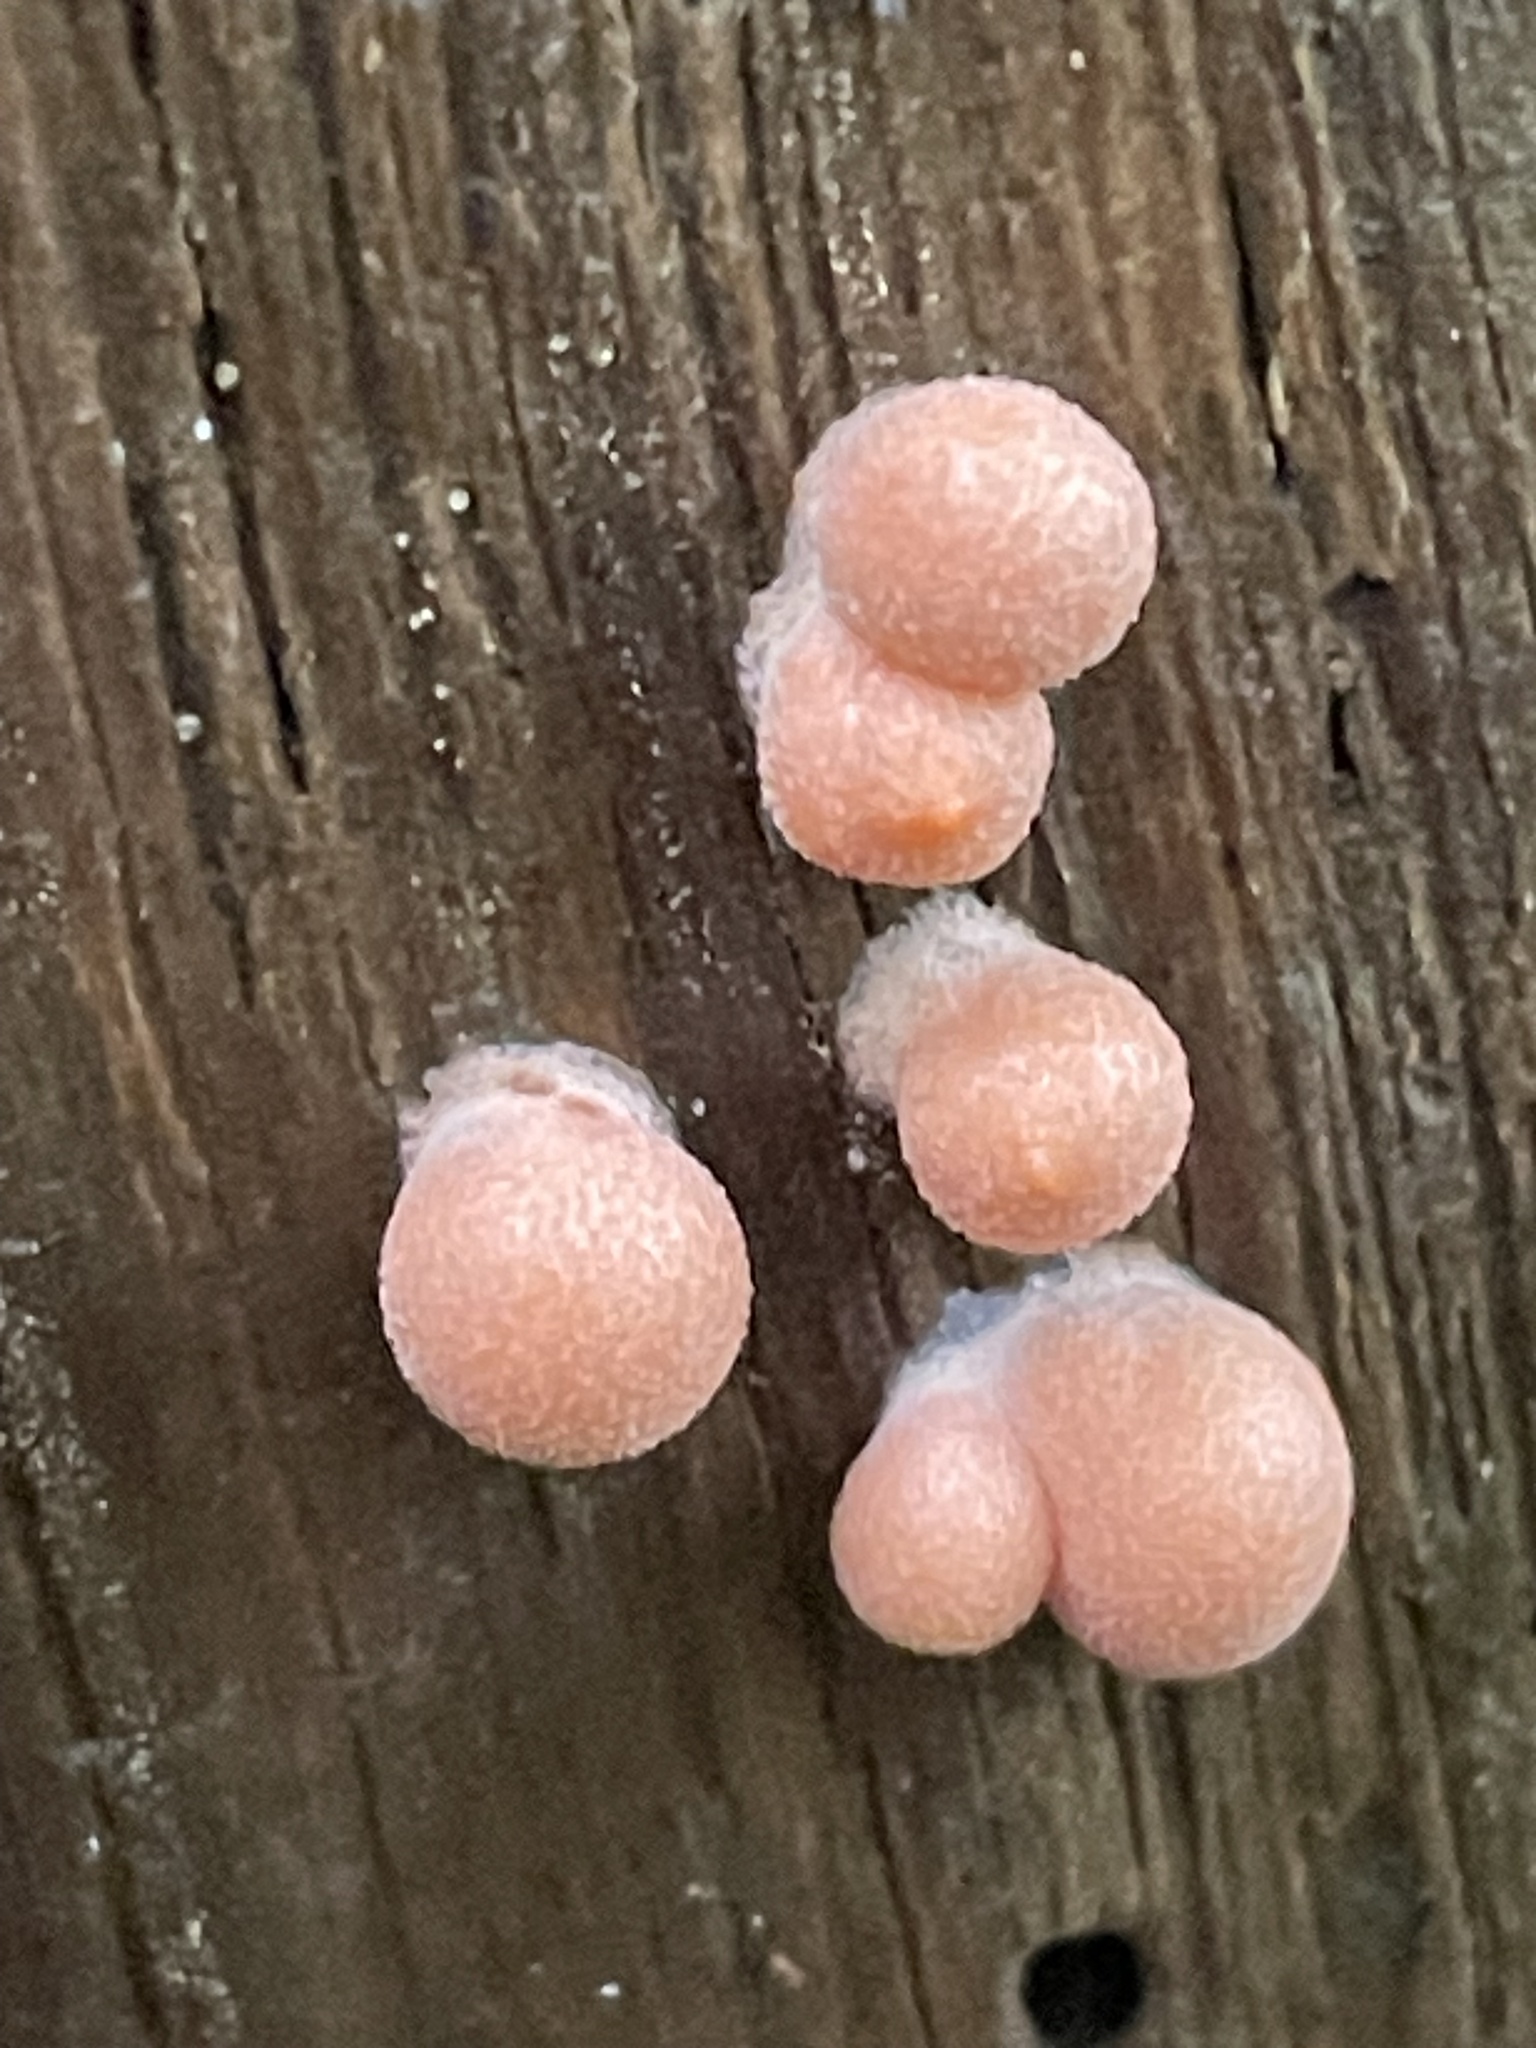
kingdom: Protozoa
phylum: Mycetozoa
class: Myxomycetes
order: Cribrariales
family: Tubiferaceae
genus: Lycogala
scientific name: Lycogala epidendrum
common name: Wolf's milk
